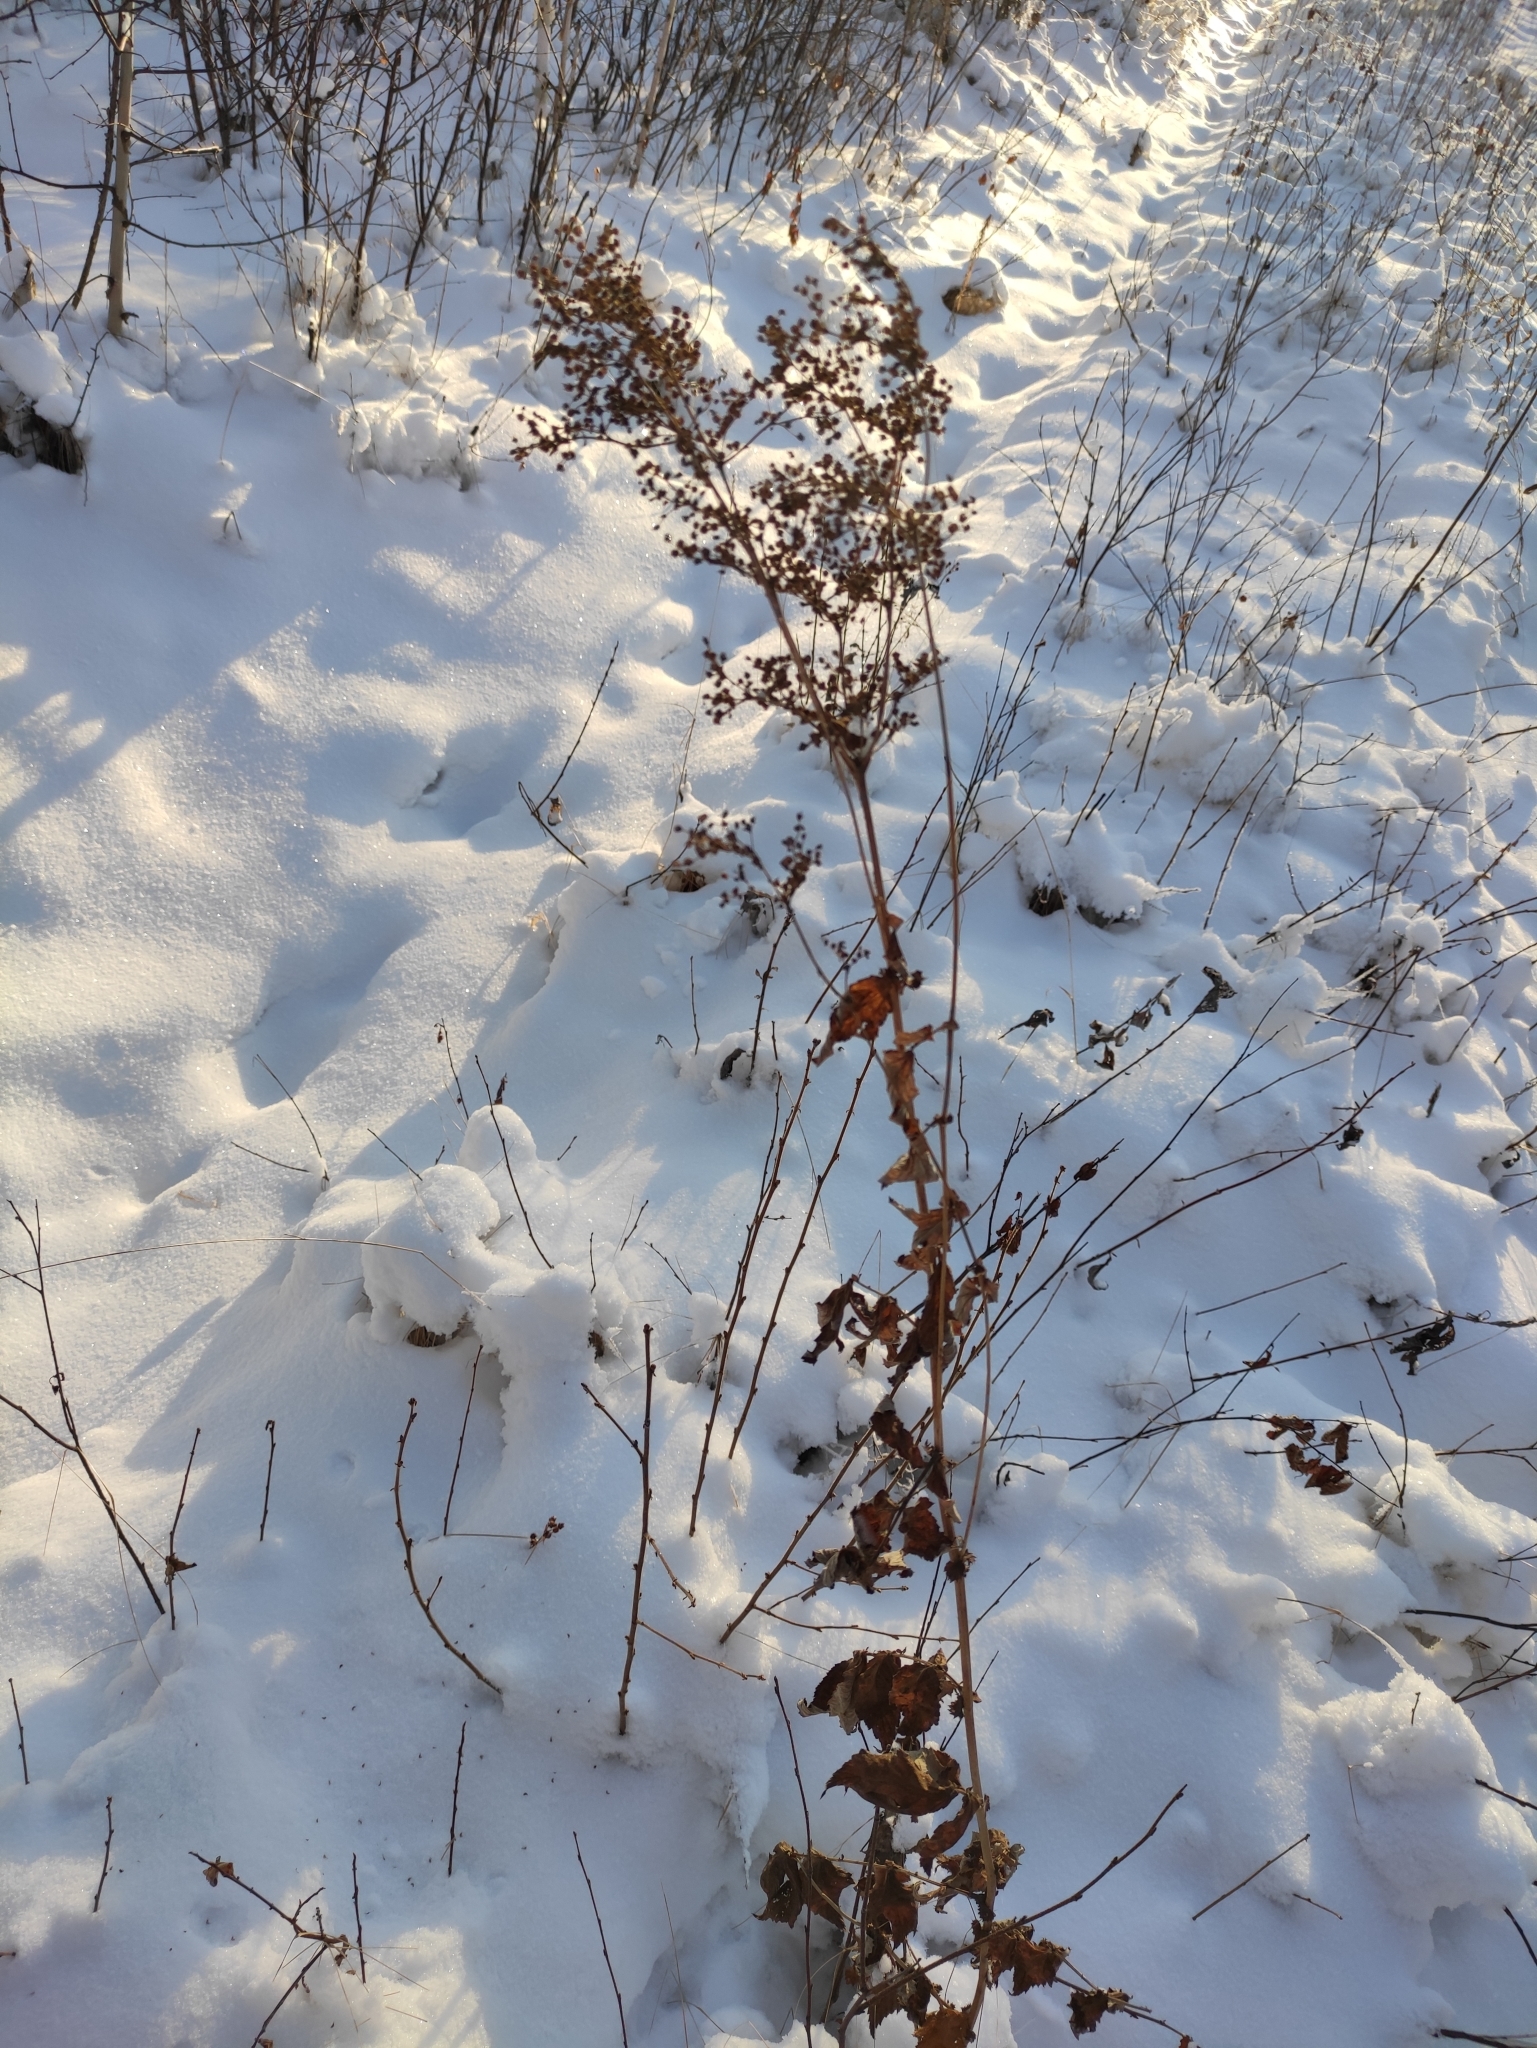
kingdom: Plantae
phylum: Tracheophyta
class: Magnoliopsida
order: Rosales
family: Rosaceae
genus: Filipendula
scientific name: Filipendula ulmaria
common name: Meadowsweet
